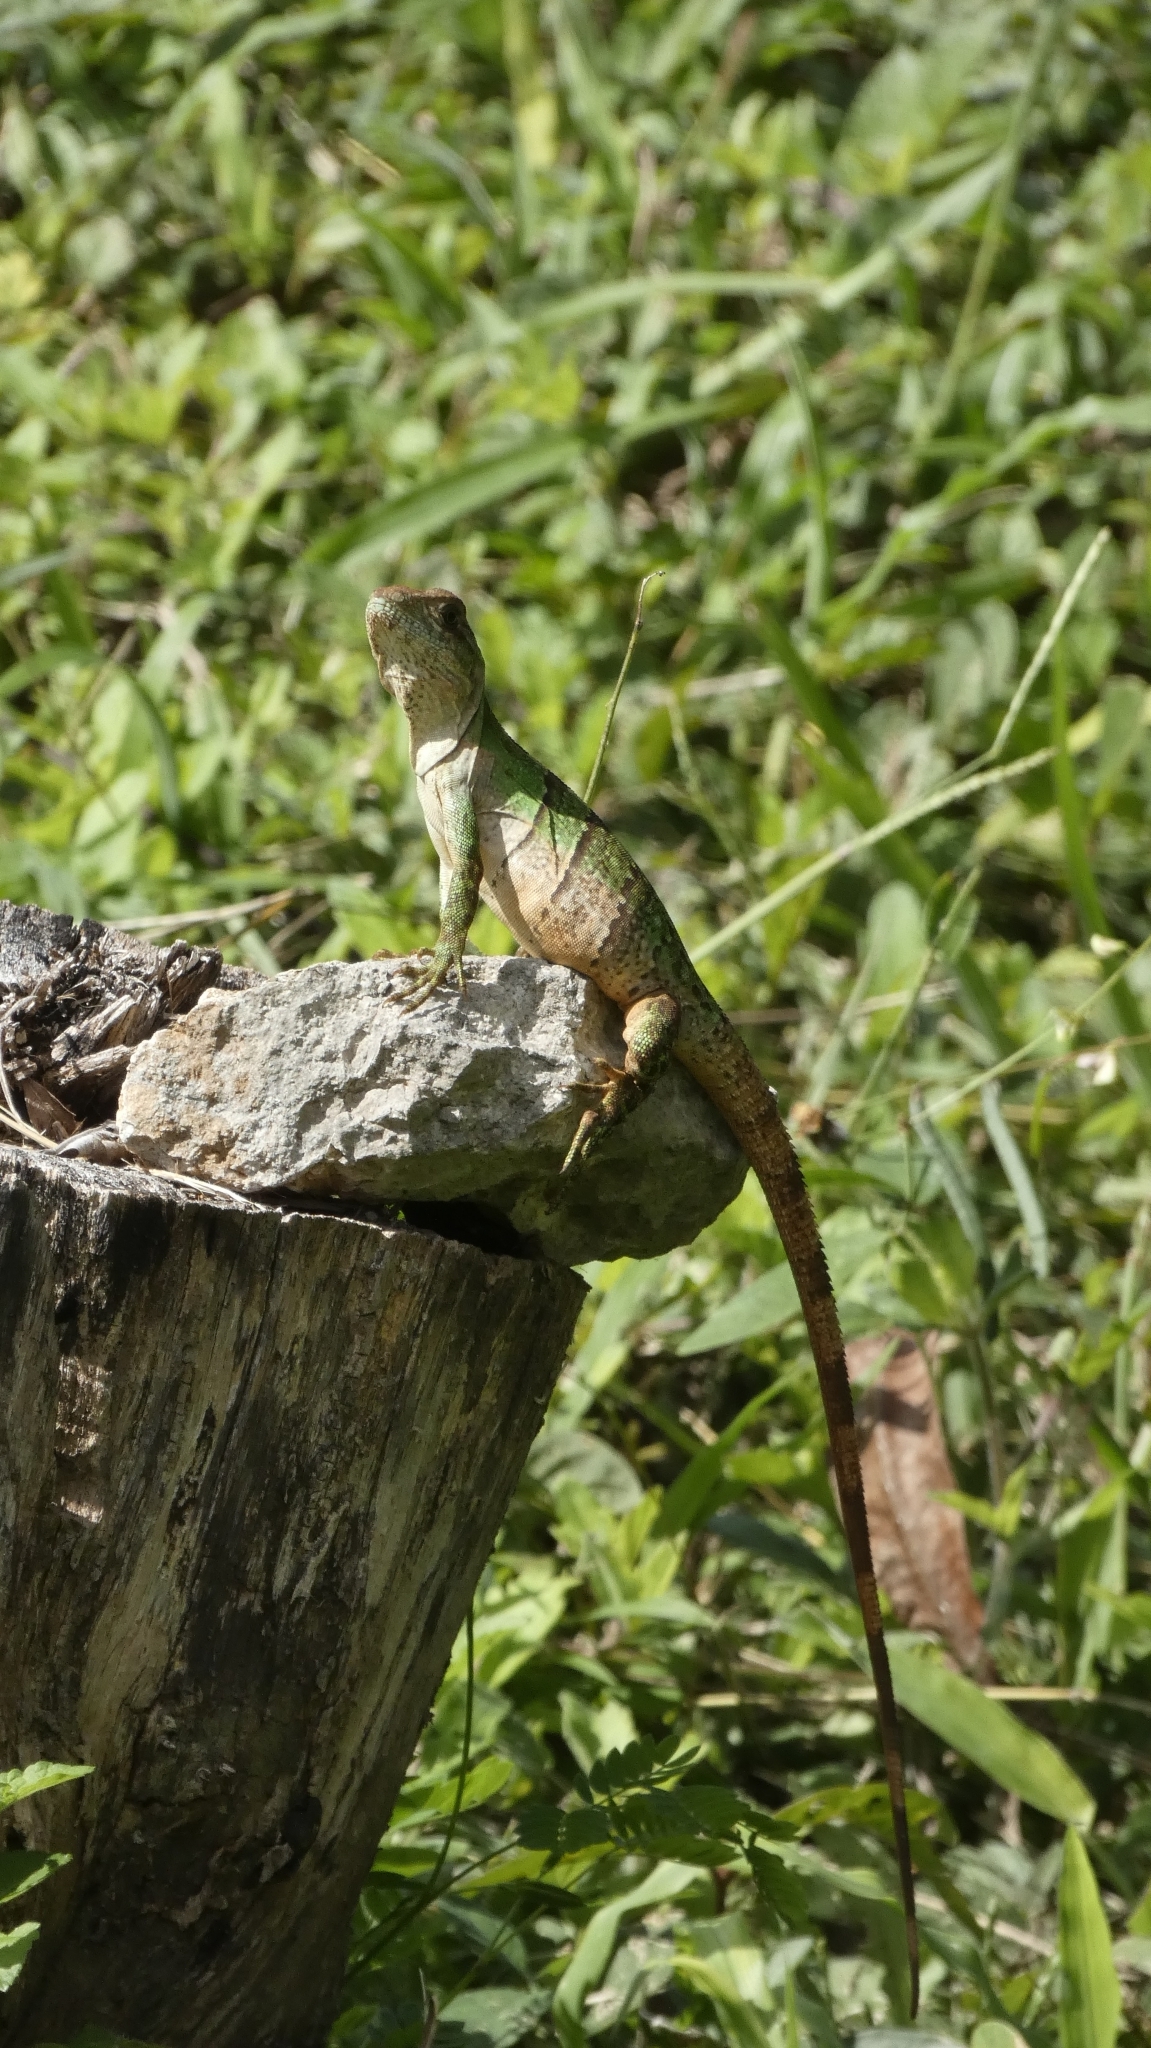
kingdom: Animalia
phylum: Chordata
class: Squamata
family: Iguanidae
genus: Ctenosaura
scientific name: Ctenosaura similis
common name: Black spiny-tailed iguana
